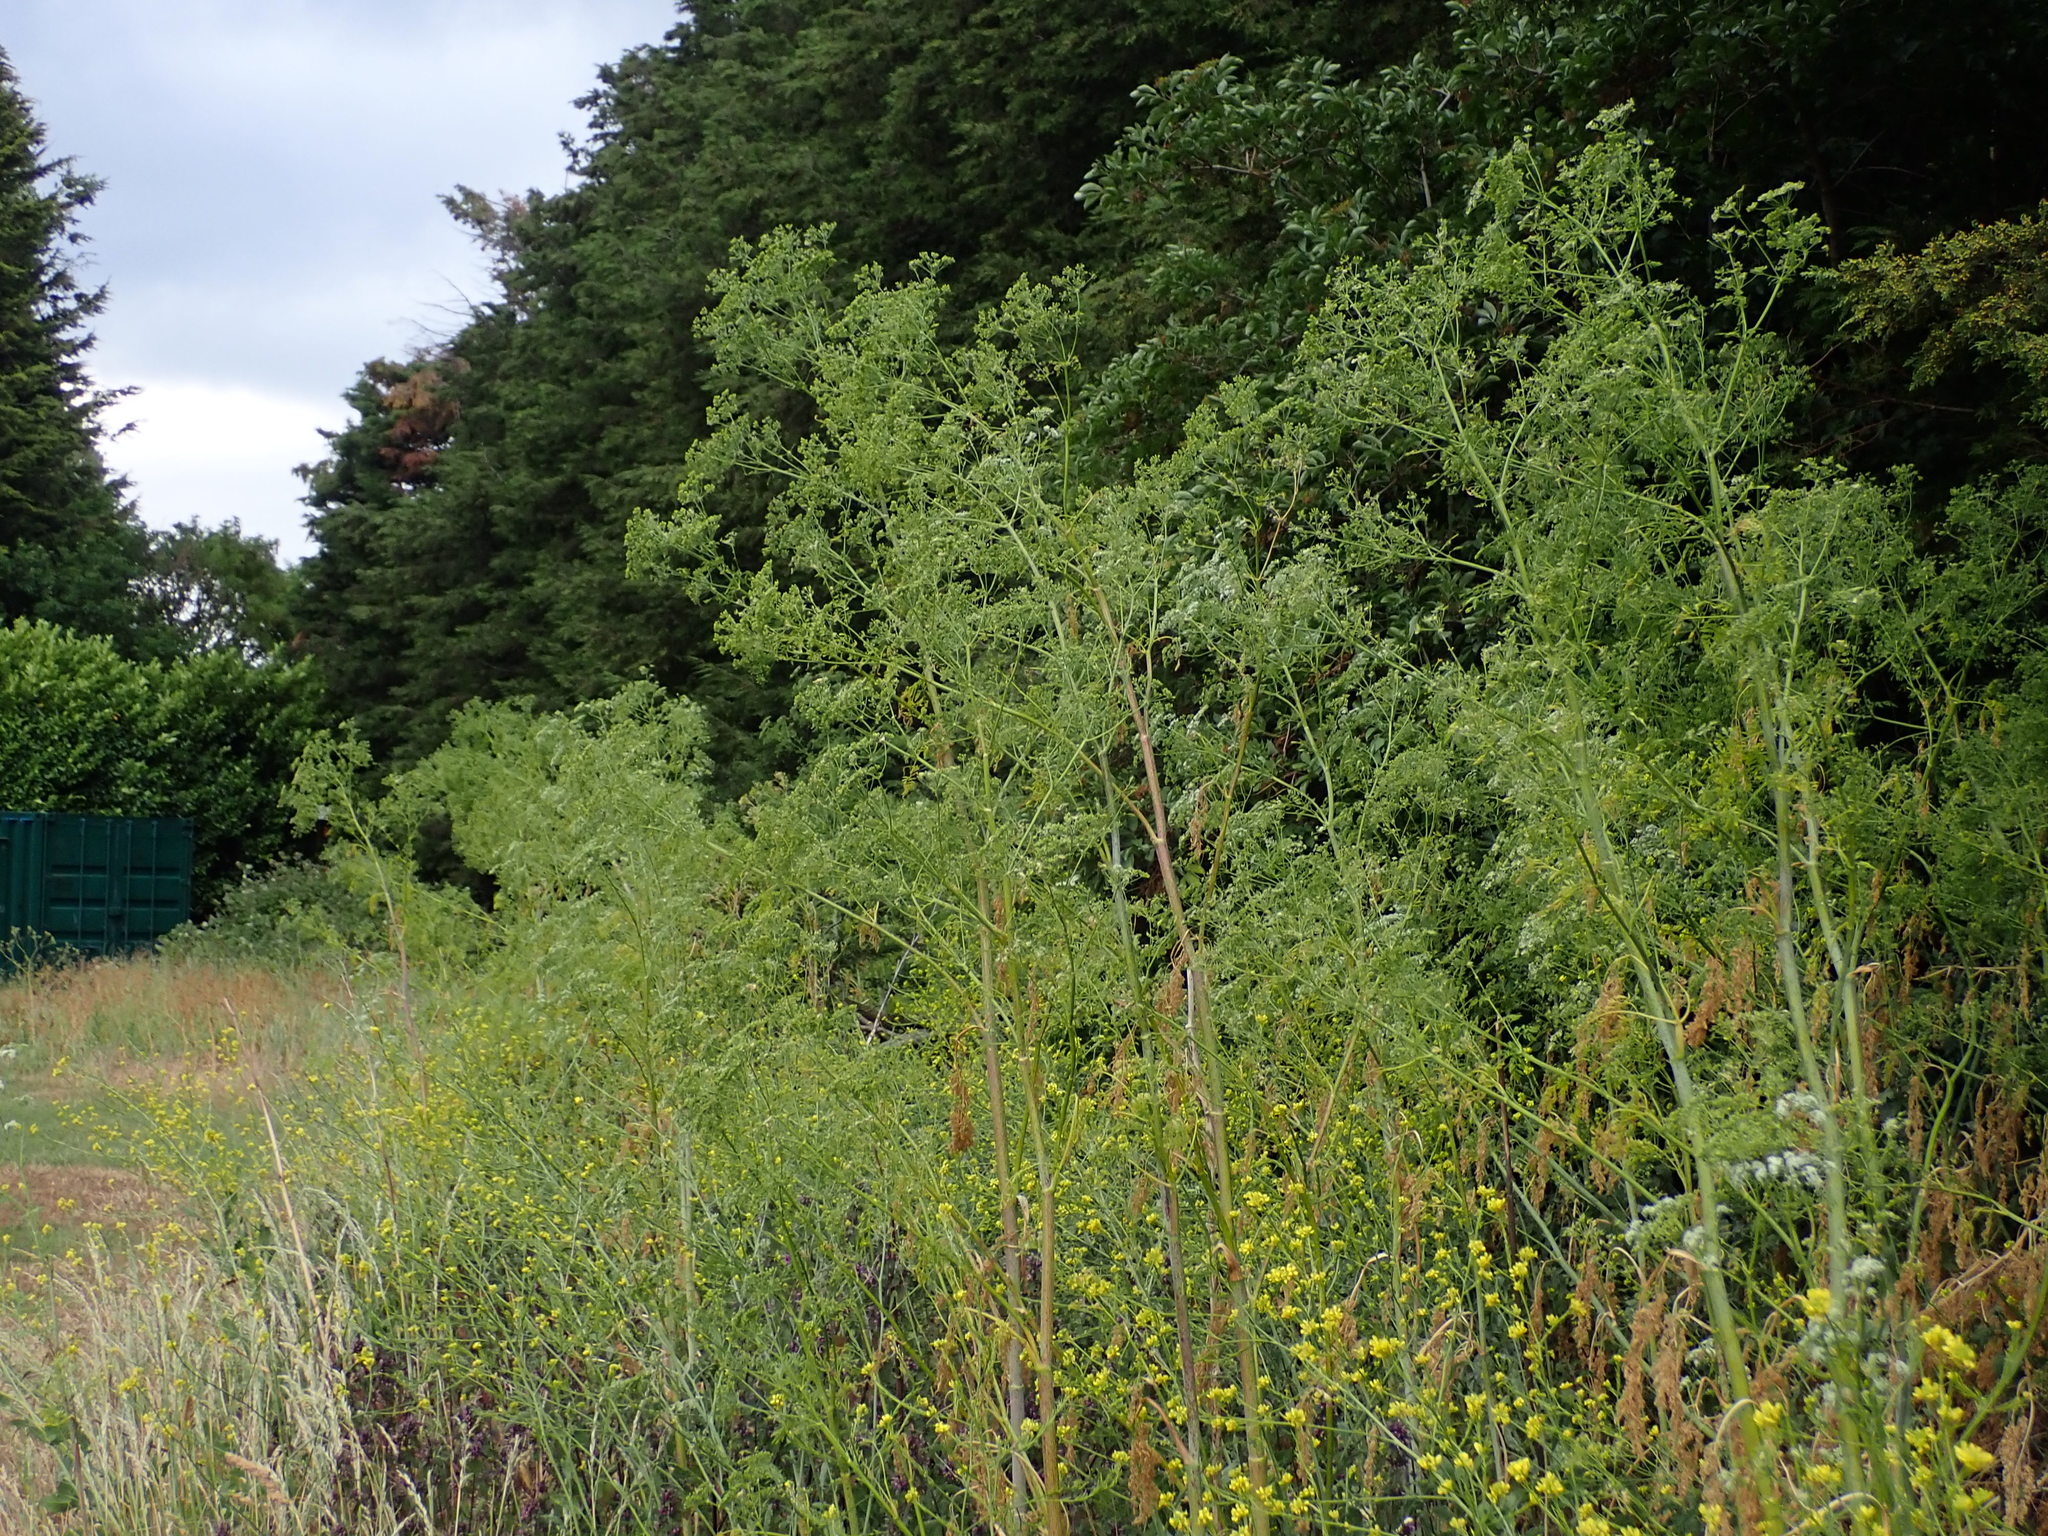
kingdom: Plantae
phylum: Tracheophyta
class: Magnoliopsida
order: Apiales
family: Apiaceae
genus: Conium
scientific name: Conium maculatum
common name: Hemlock
